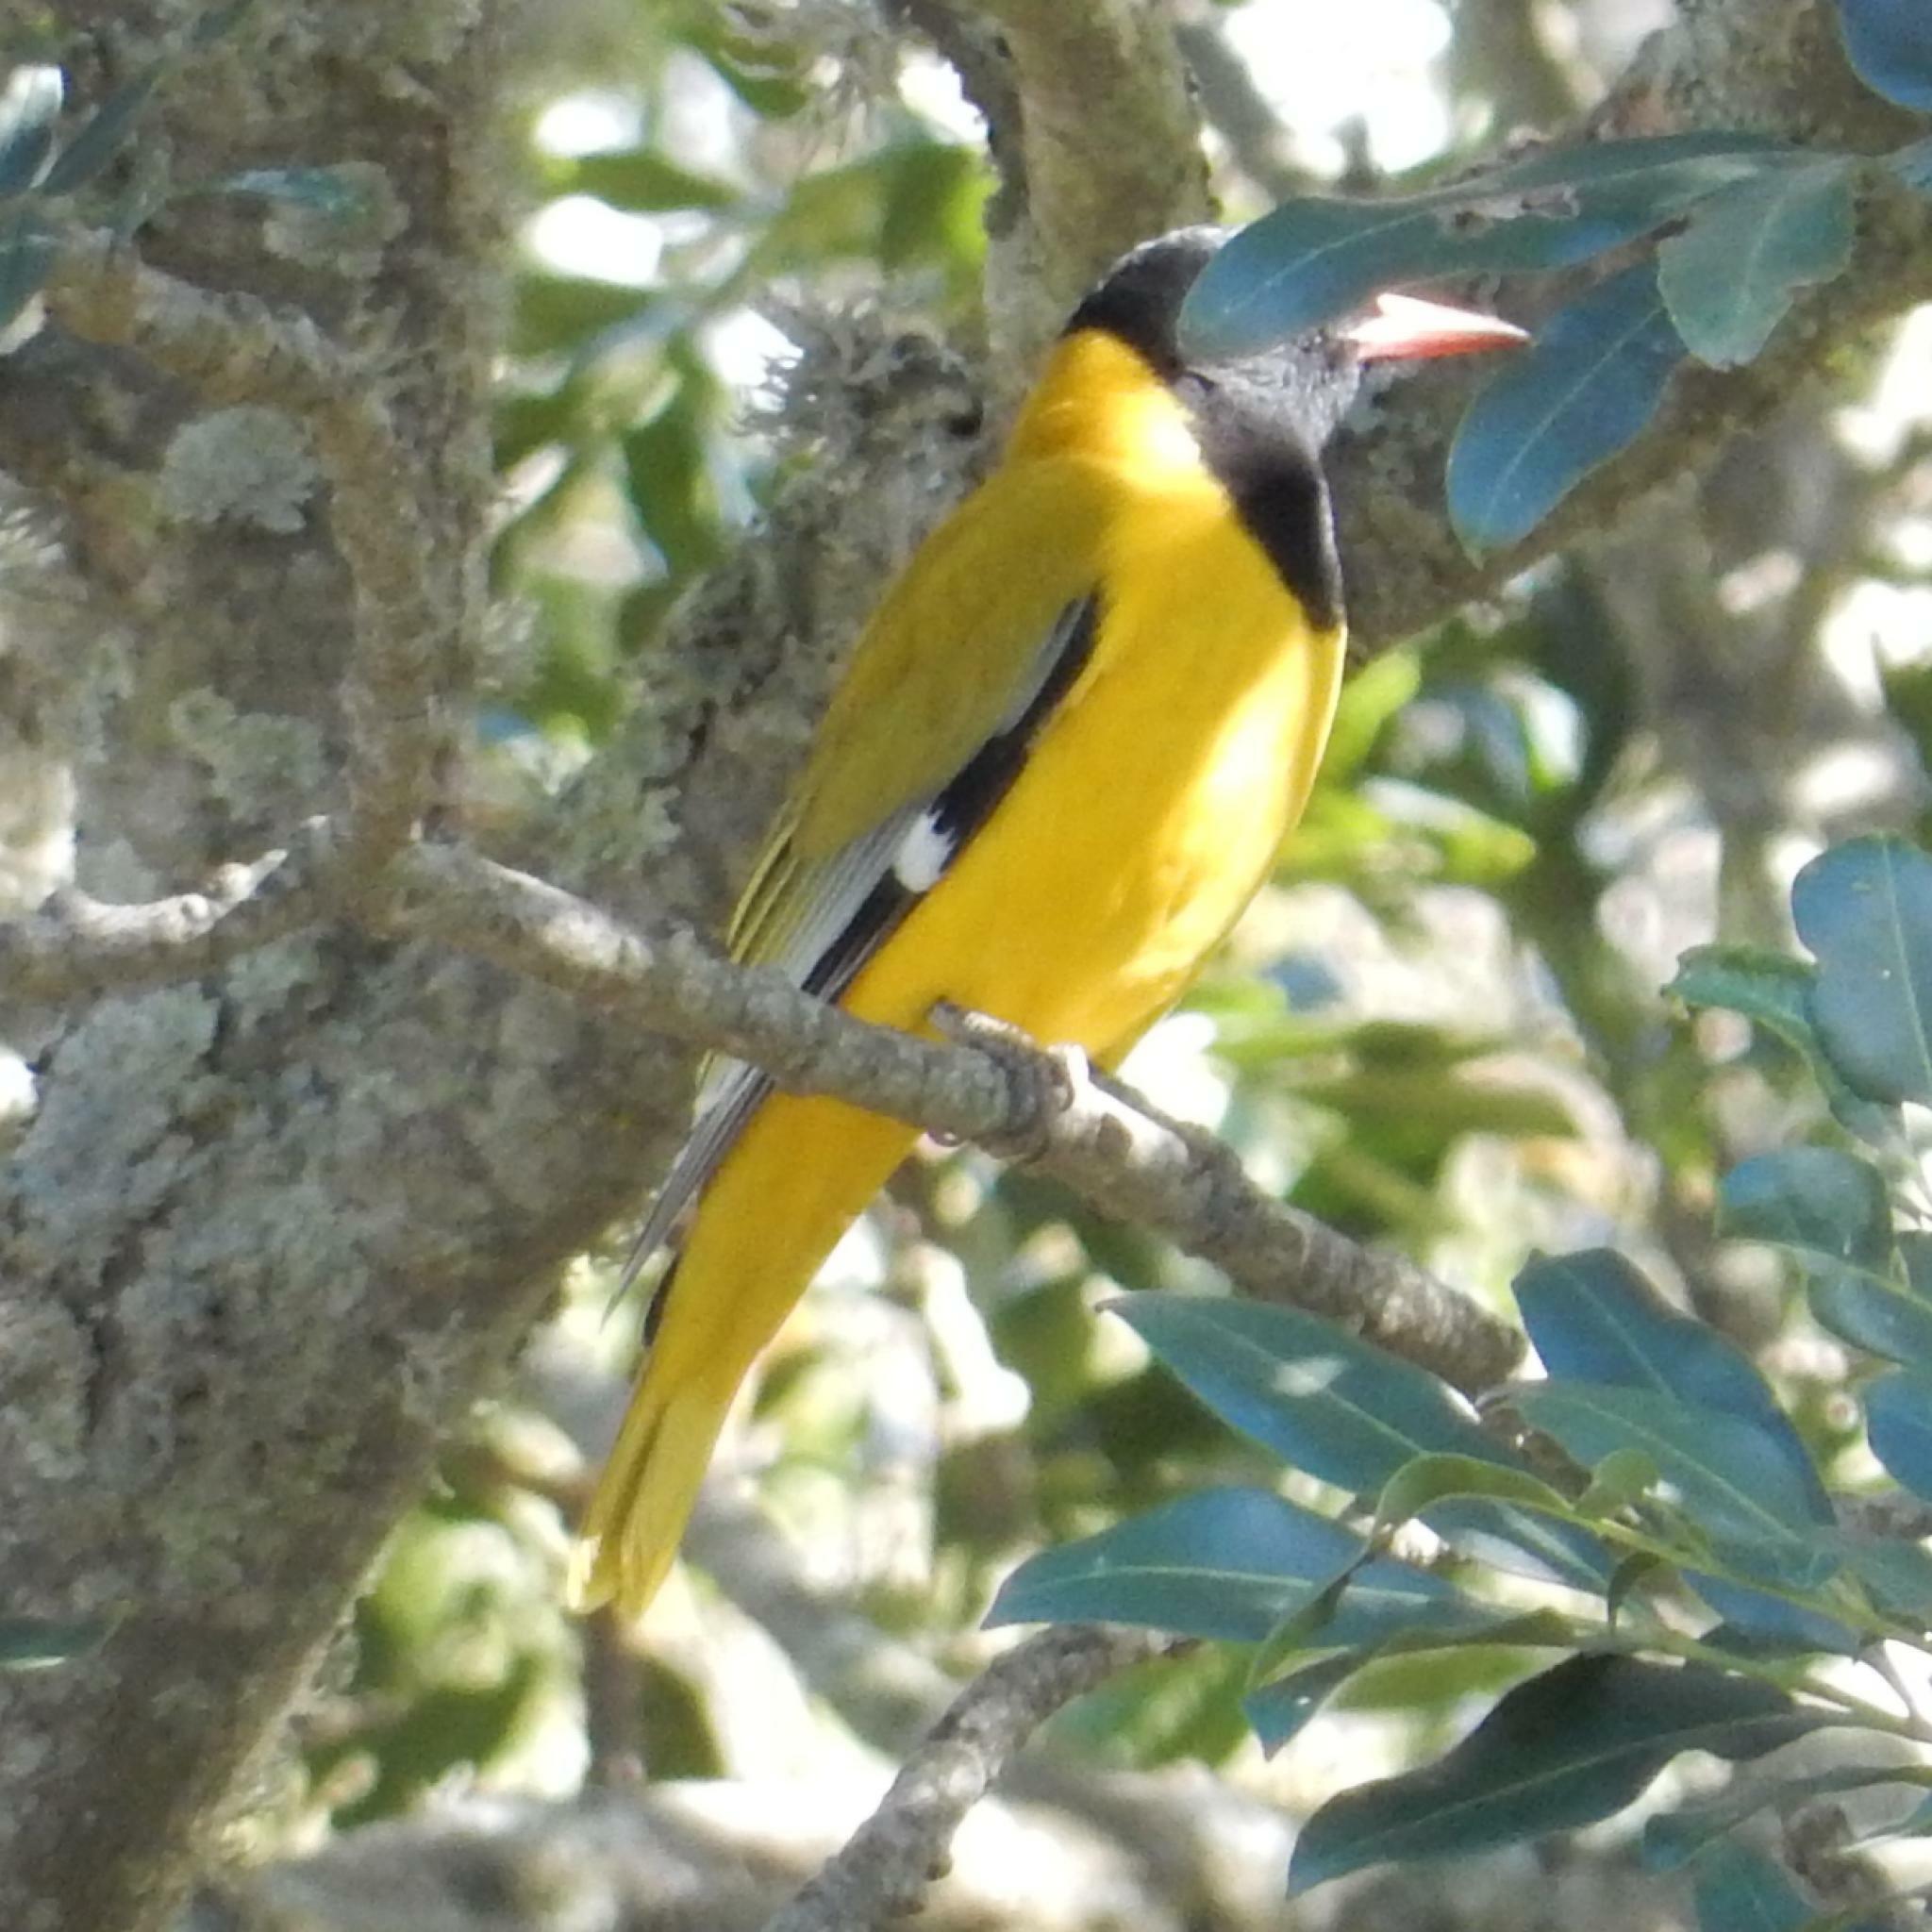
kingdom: Animalia
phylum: Chordata
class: Aves
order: Passeriformes
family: Oriolidae
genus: Oriolus
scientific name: Oriolus larvatus
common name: Black-headed oriole
